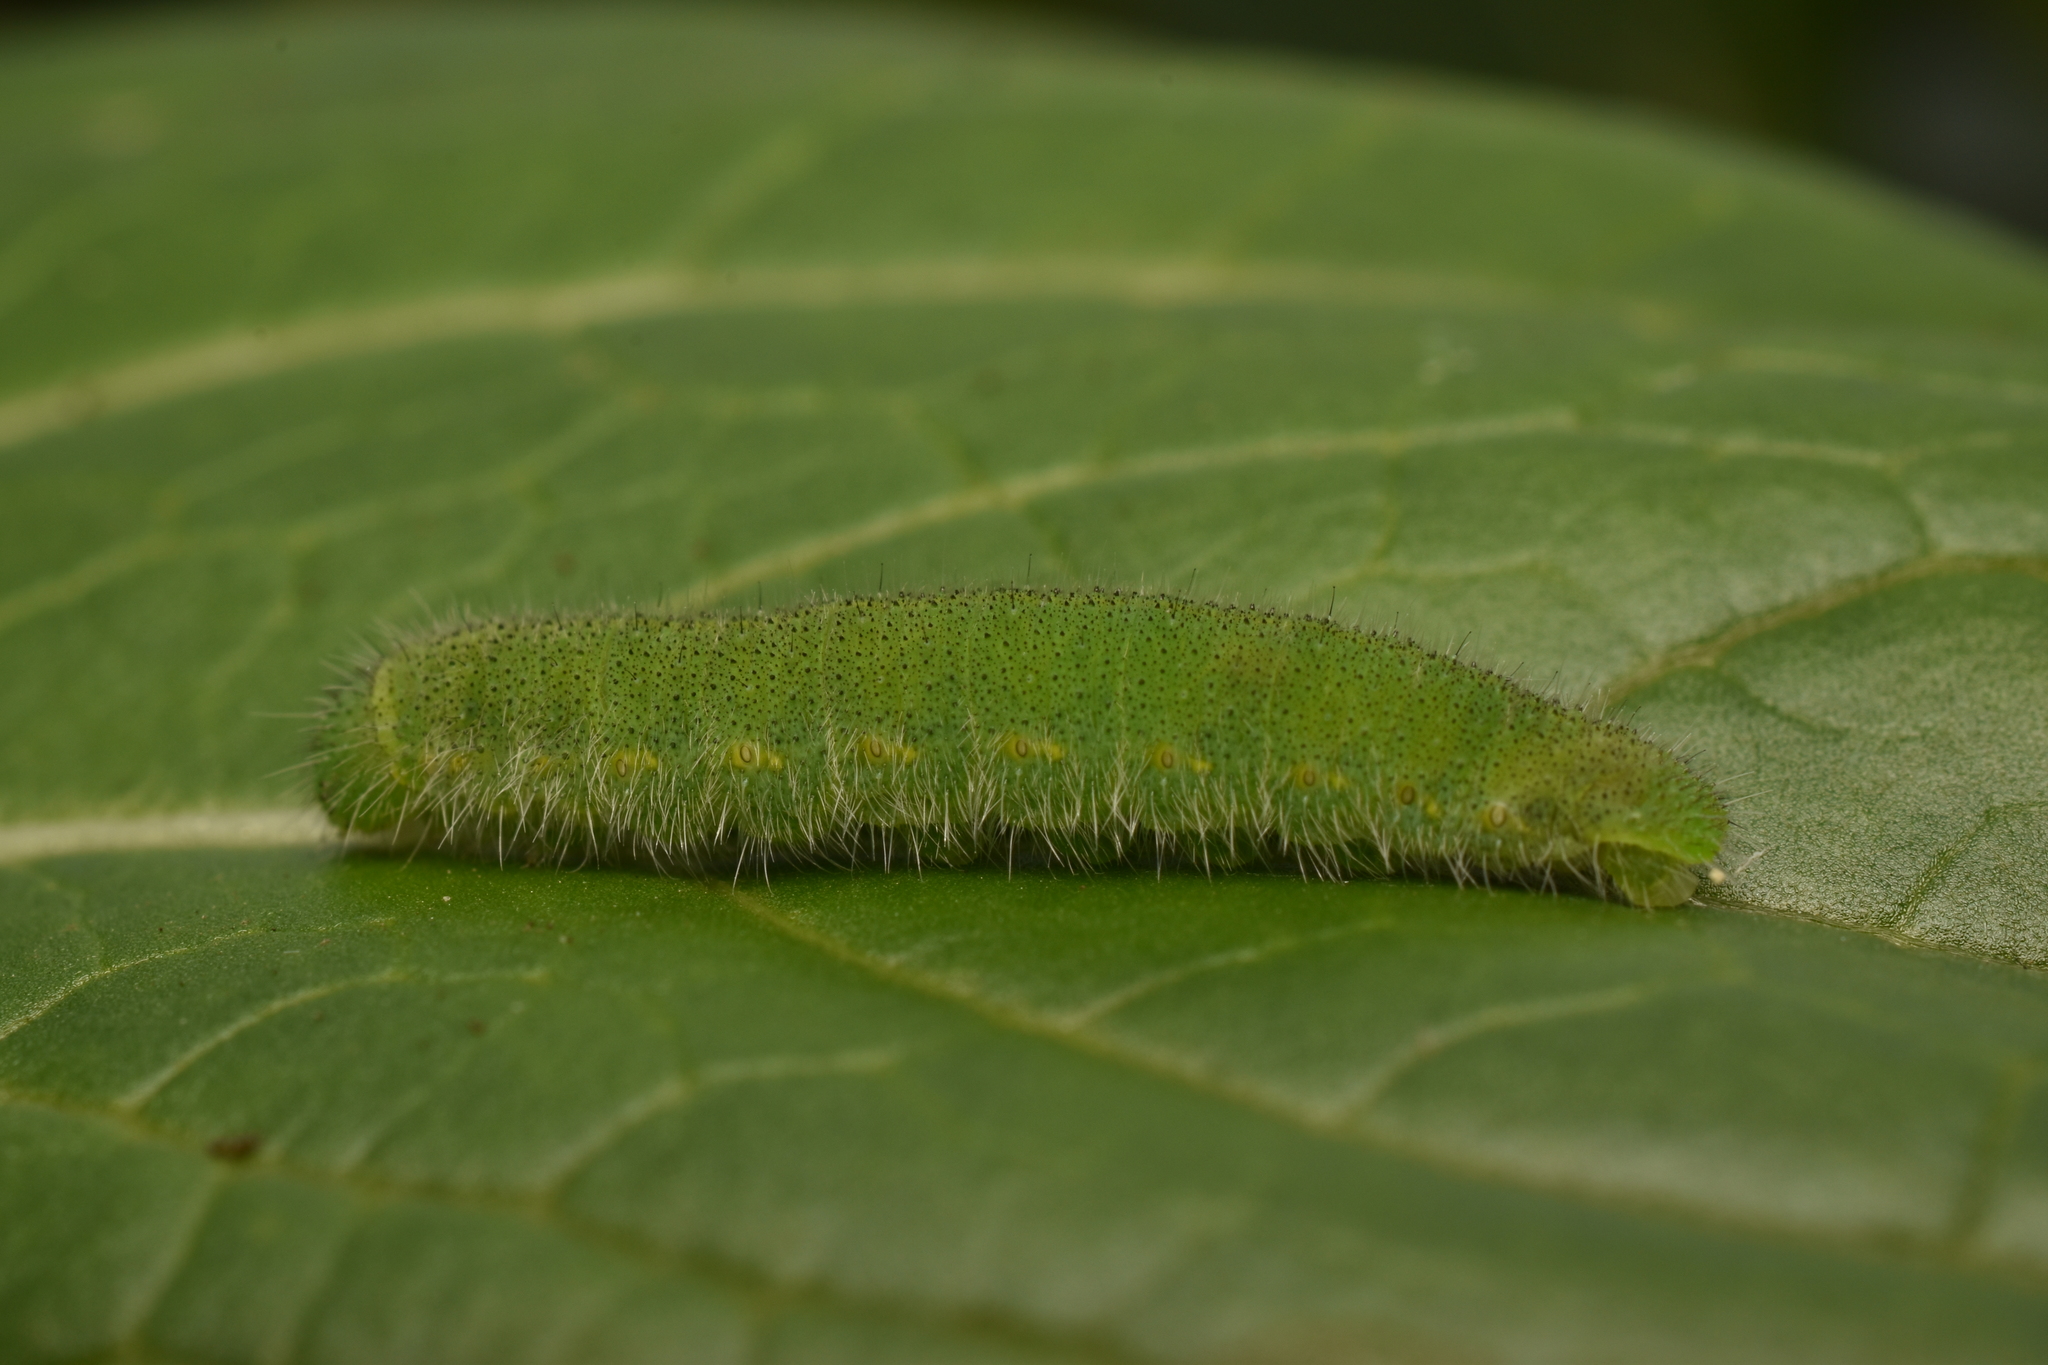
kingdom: Animalia
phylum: Arthropoda
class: Insecta
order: Lepidoptera
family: Pieridae
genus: Pieris
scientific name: Pieris rapae
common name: Small white
